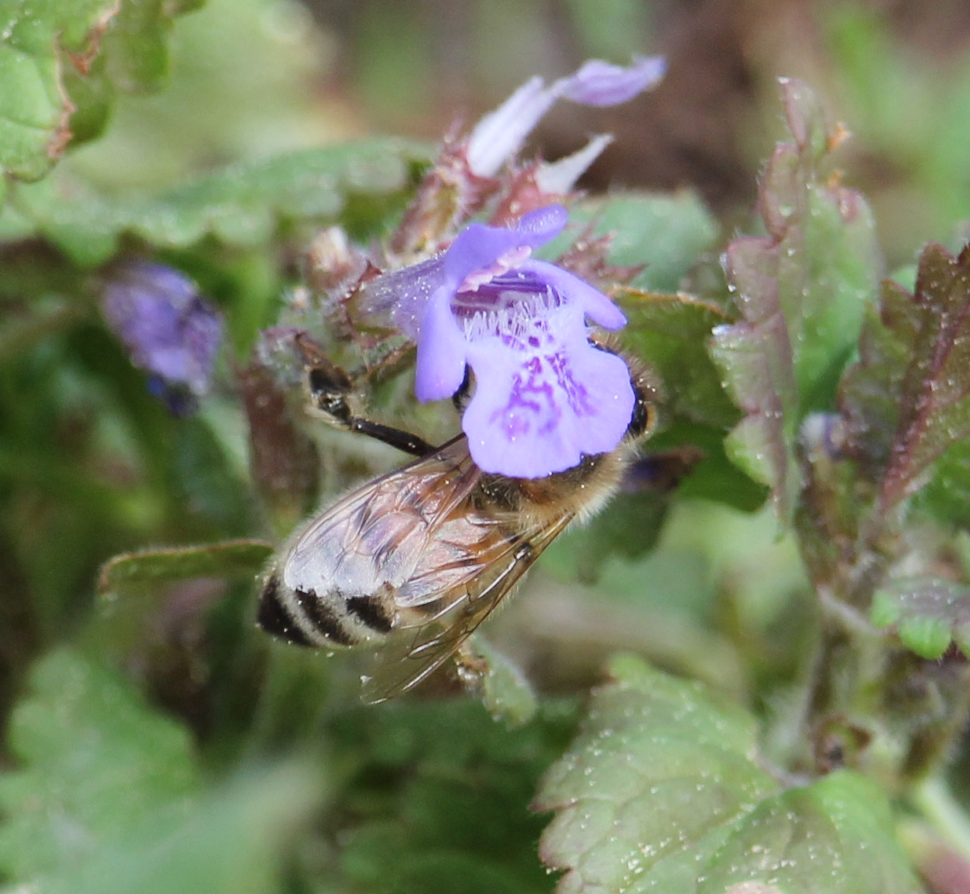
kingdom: Animalia
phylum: Arthropoda
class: Insecta
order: Hymenoptera
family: Apidae
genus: Apis
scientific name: Apis mellifera
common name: Honey bee
